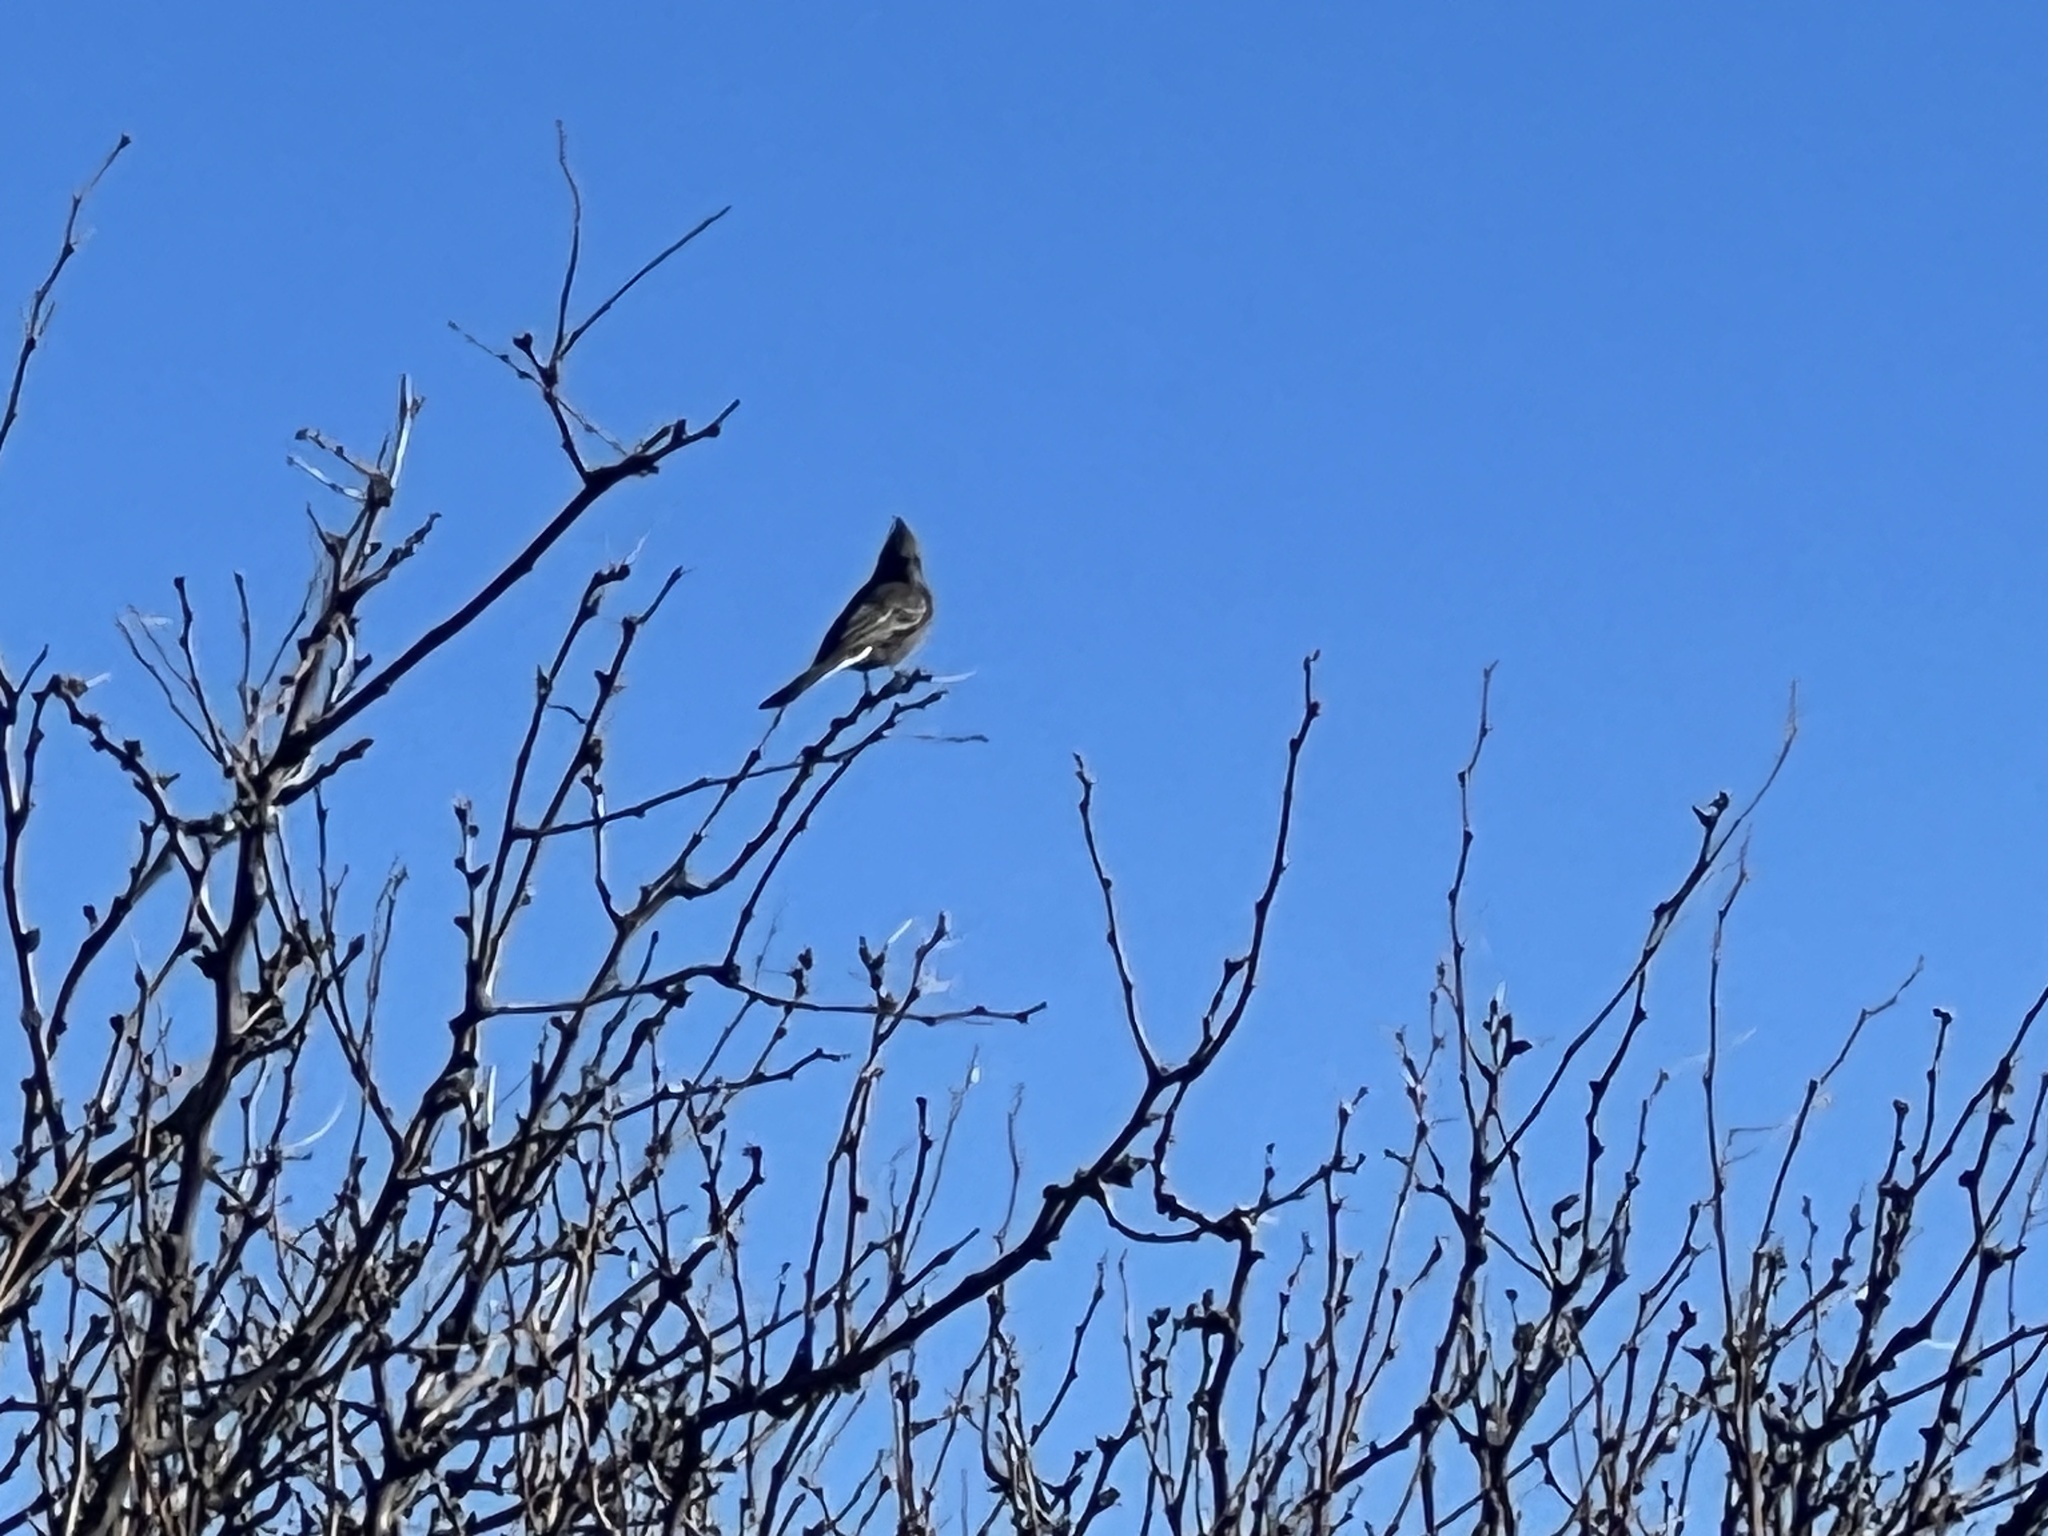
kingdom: Animalia
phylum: Chordata
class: Aves
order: Passeriformes
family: Ptilogonatidae
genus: Phainopepla
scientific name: Phainopepla nitens
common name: Phainopepla
